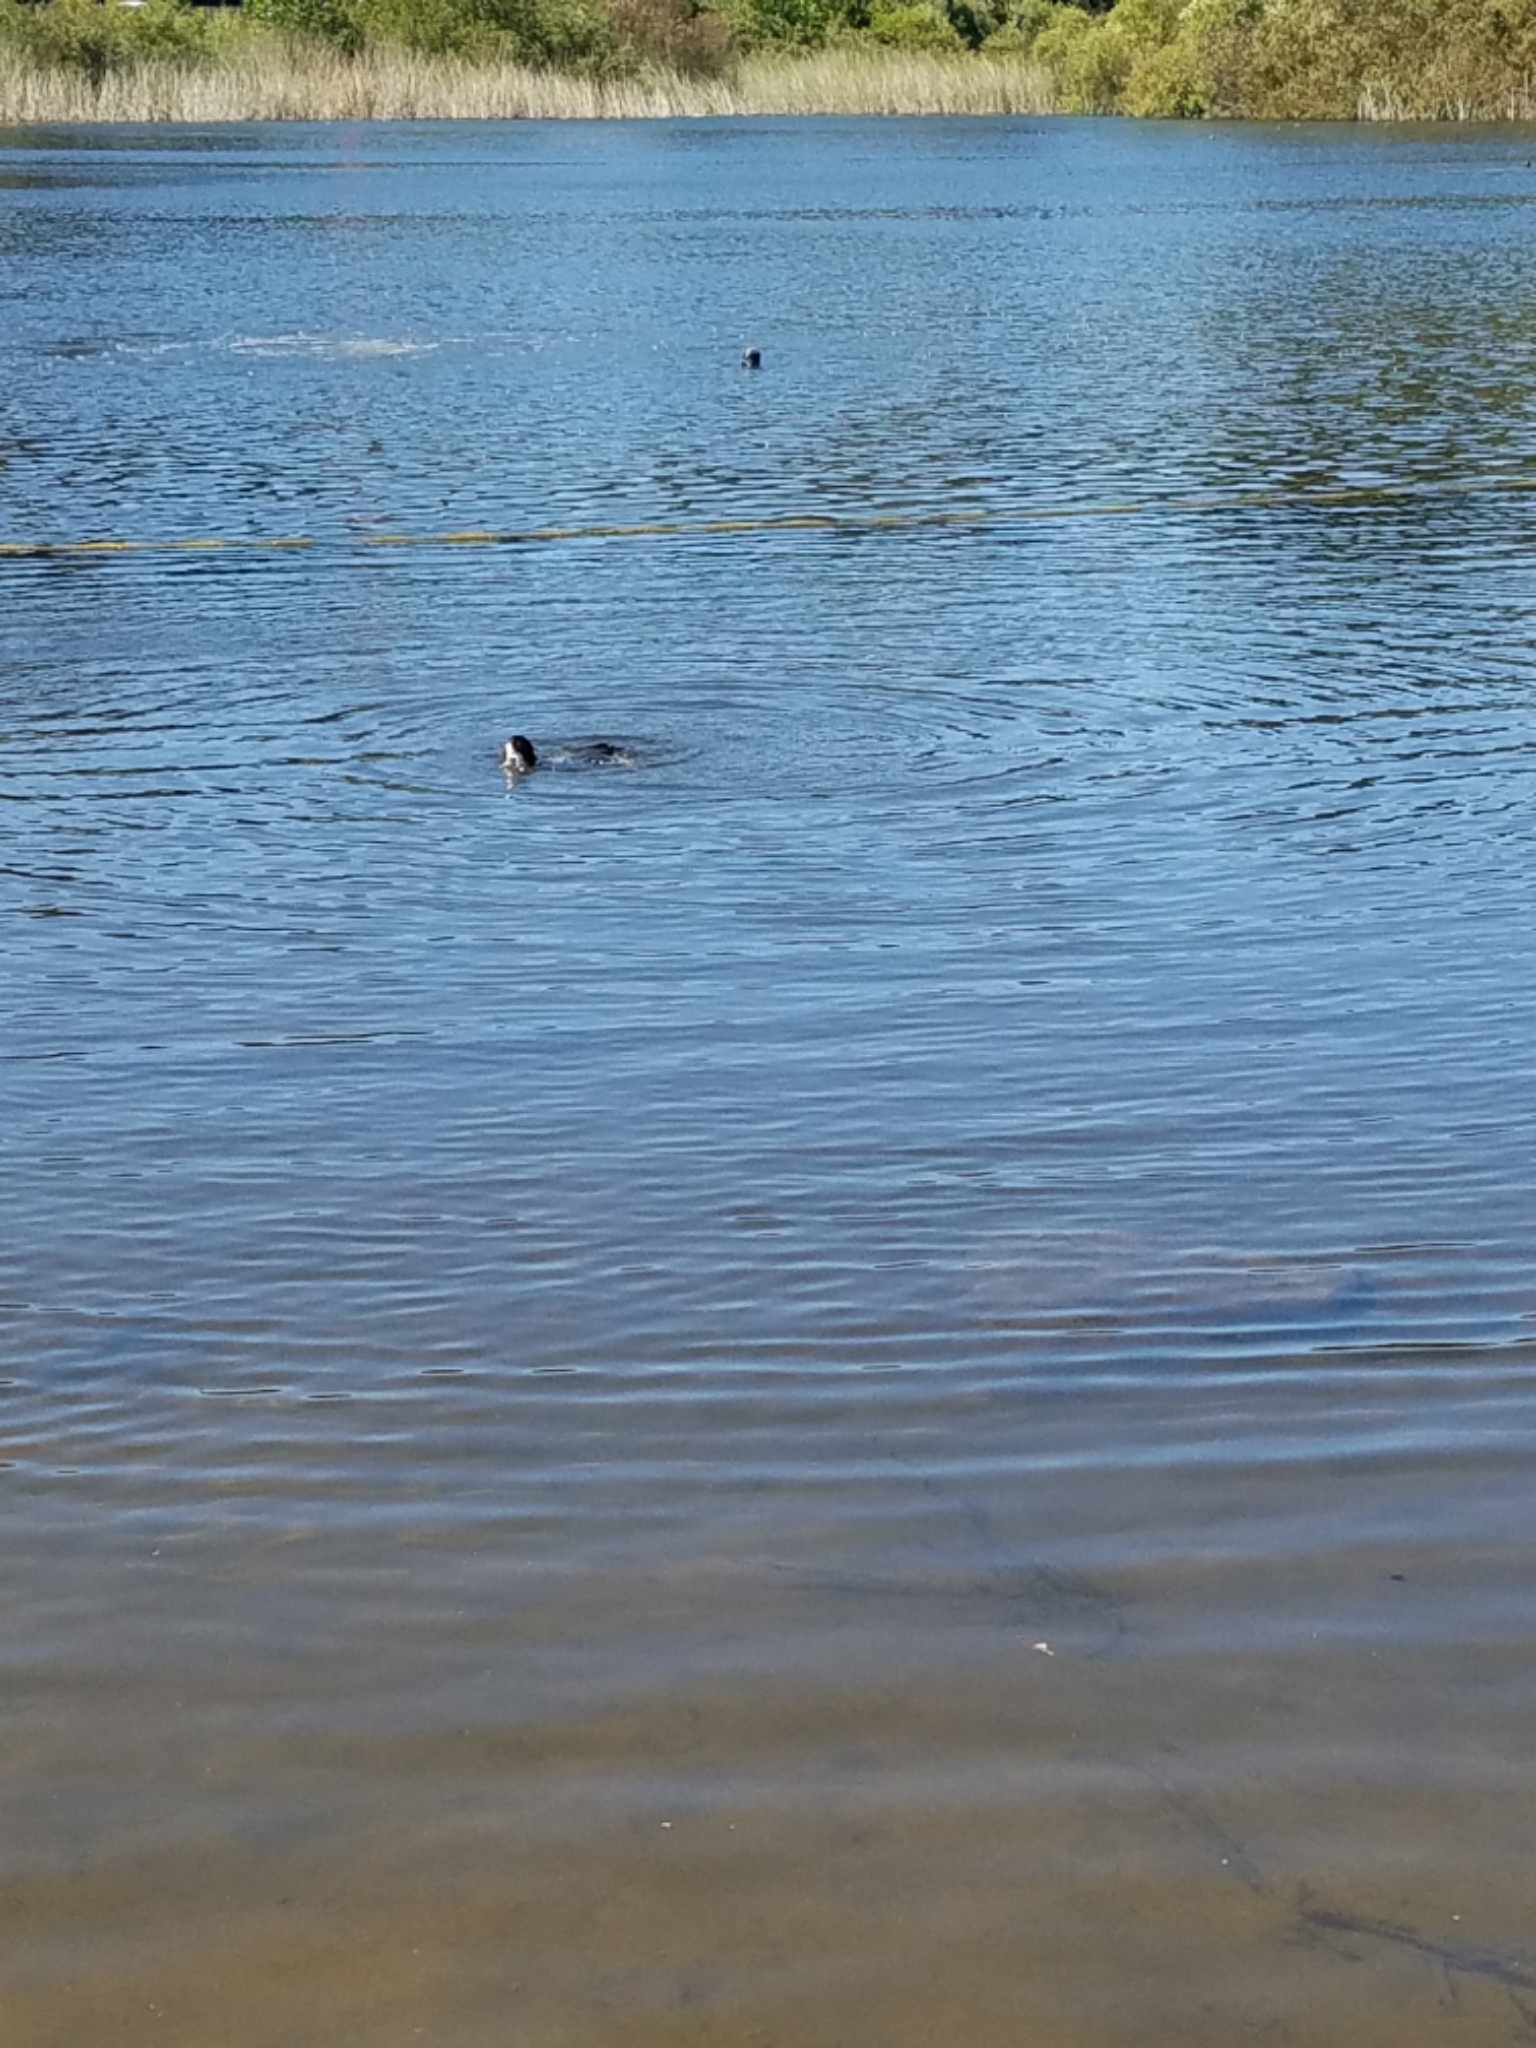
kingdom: Animalia
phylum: Chordata
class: Aves
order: Gruiformes
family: Rallidae
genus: Fulica
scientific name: Fulica americana
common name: American coot
